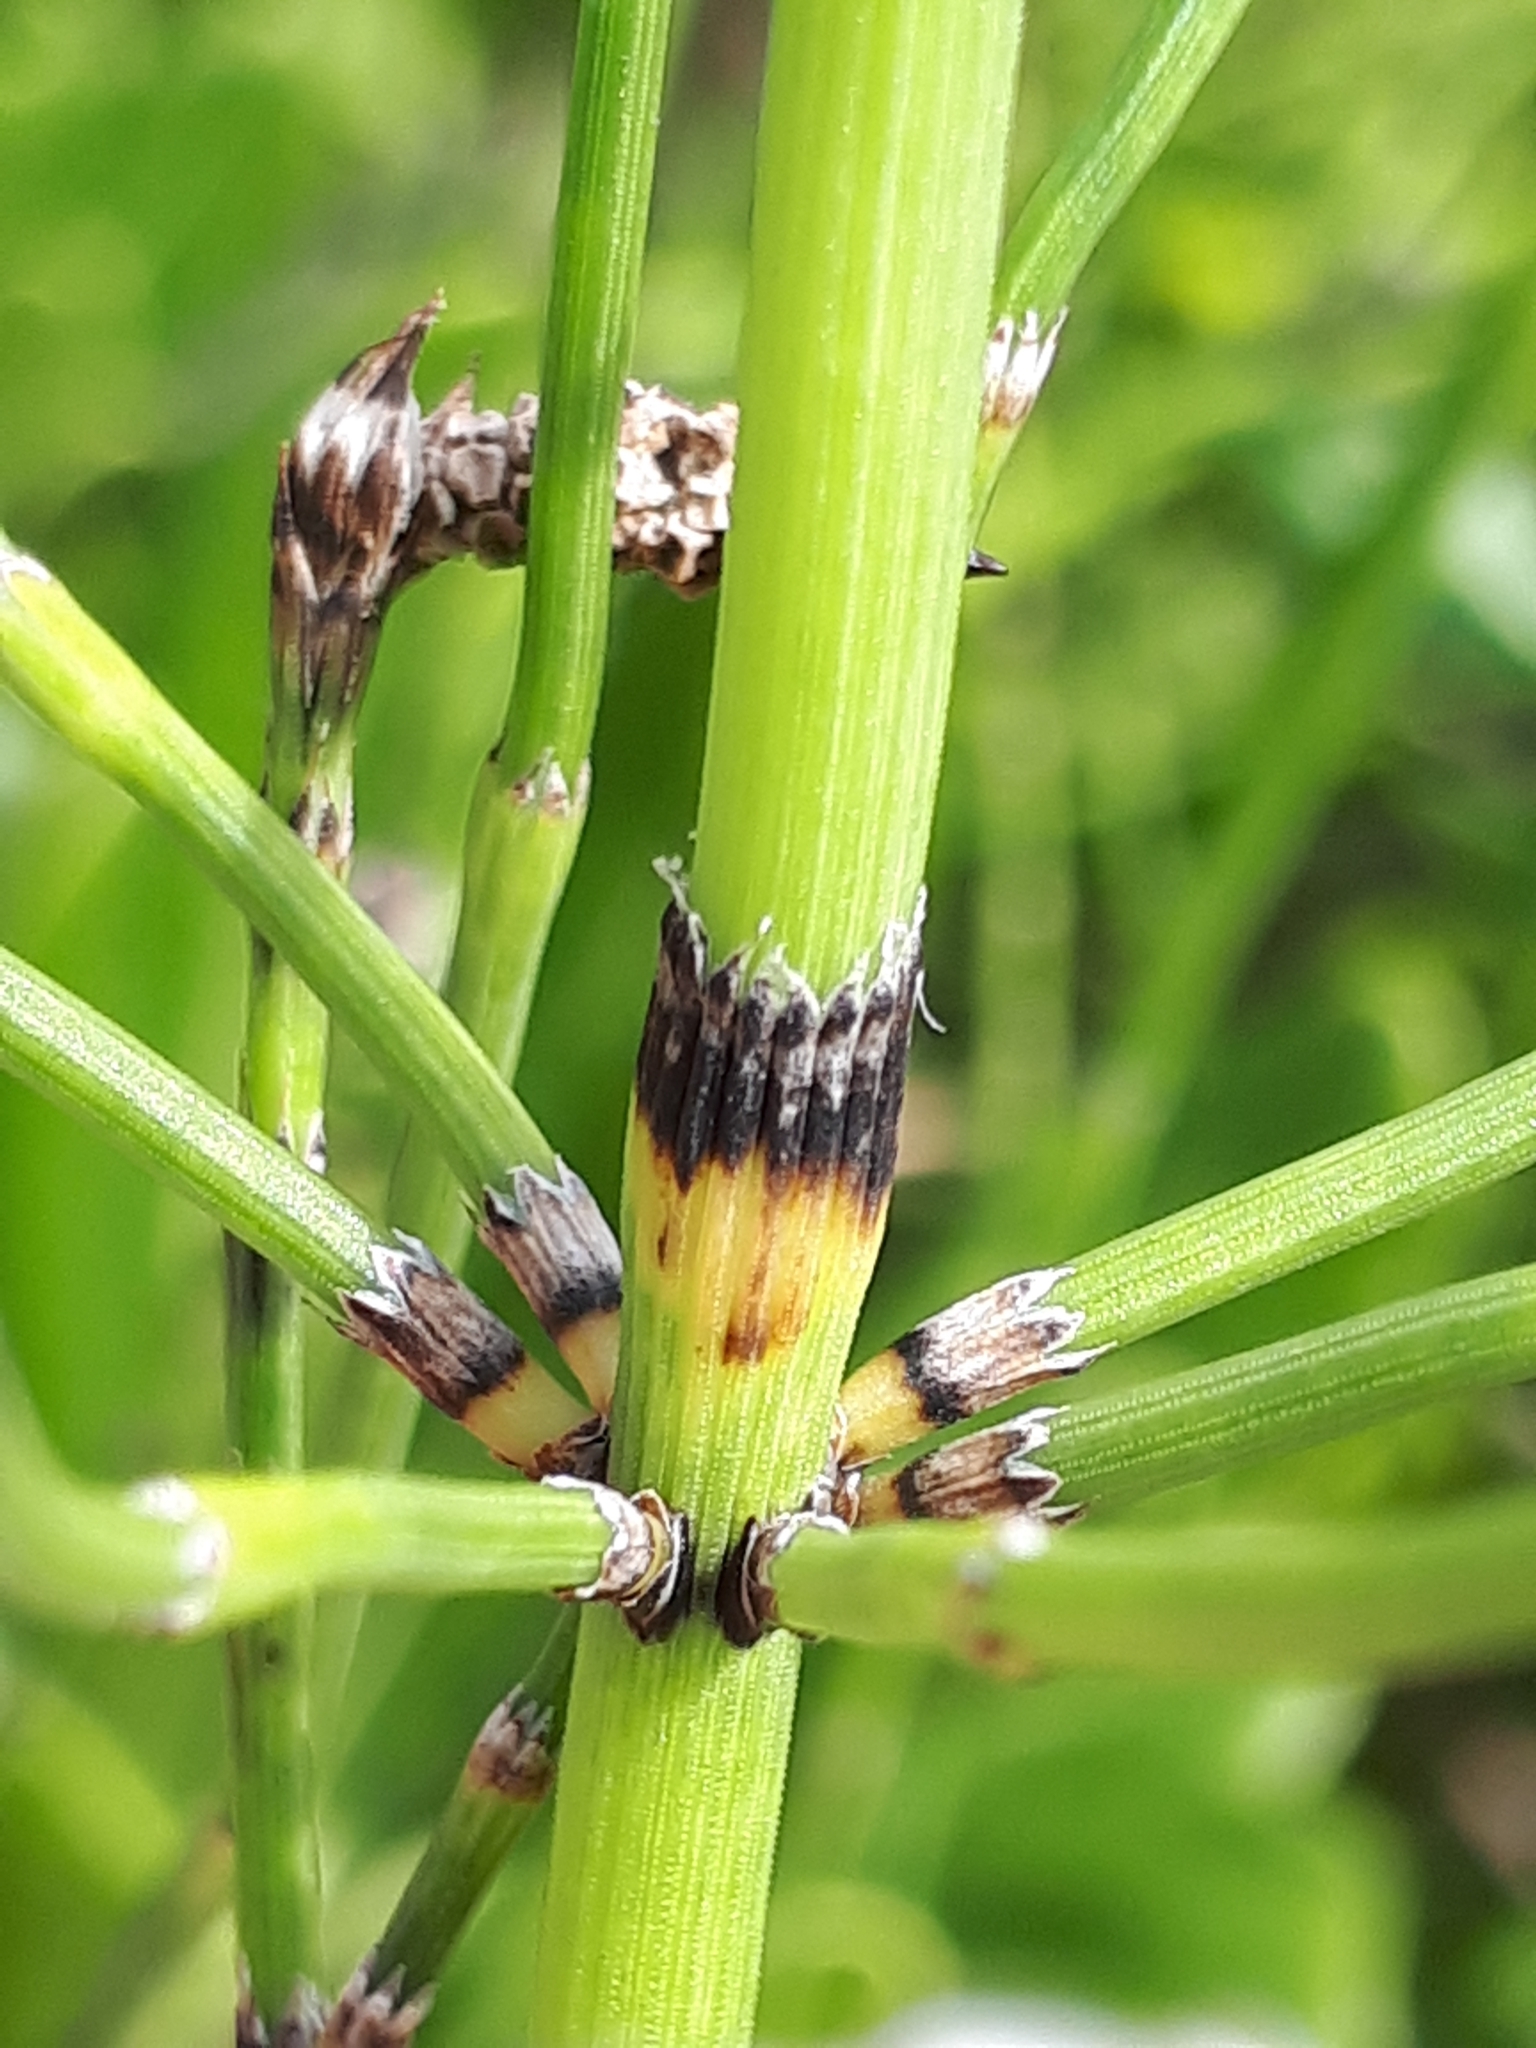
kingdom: Plantae
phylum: Tracheophyta
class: Polypodiopsida
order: Equisetales
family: Equisetaceae
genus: Equisetum
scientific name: Equisetum ramosissimum
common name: Branched horsetail
